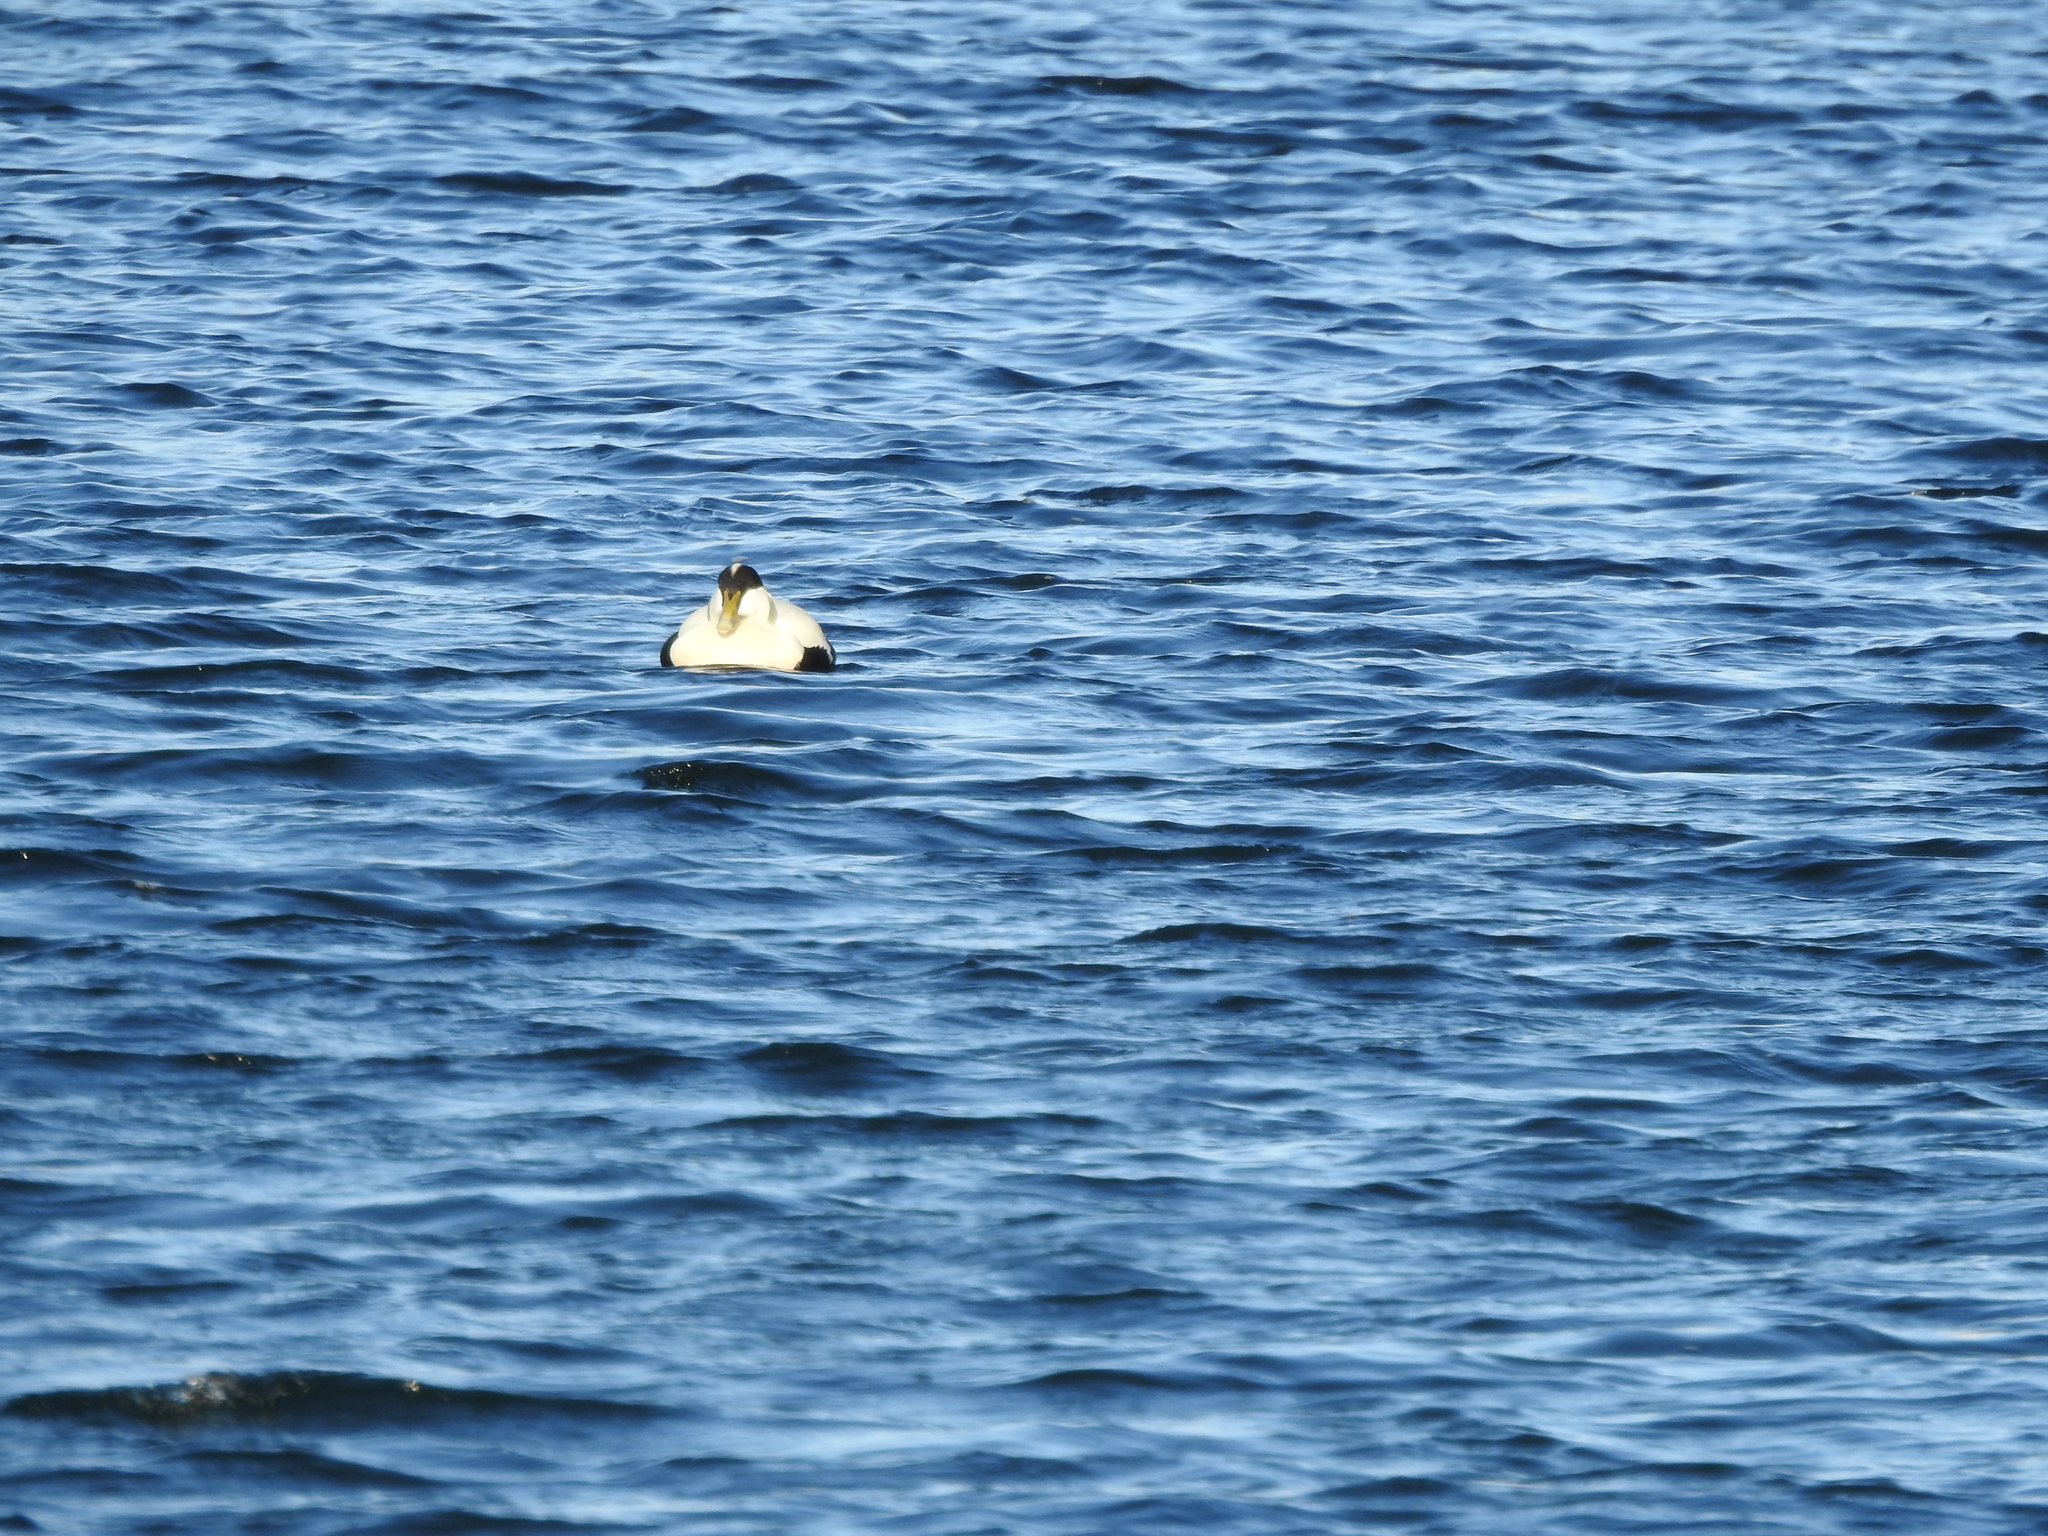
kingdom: Animalia
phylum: Chordata
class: Aves
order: Anseriformes
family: Anatidae
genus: Somateria
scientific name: Somateria mollissima
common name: Common eider
